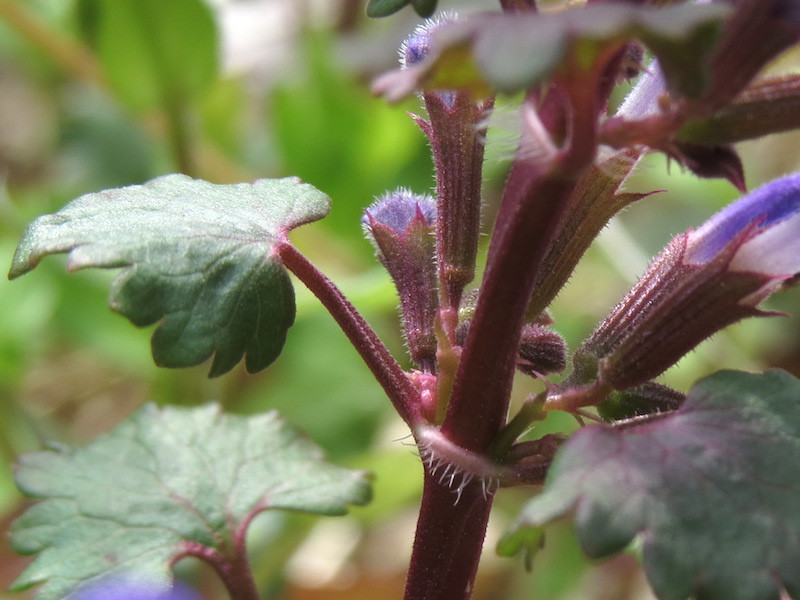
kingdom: Plantae
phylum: Tracheophyta
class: Magnoliopsida
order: Lamiales
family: Lamiaceae
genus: Glechoma
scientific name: Glechoma hederacea
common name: Ground ivy
